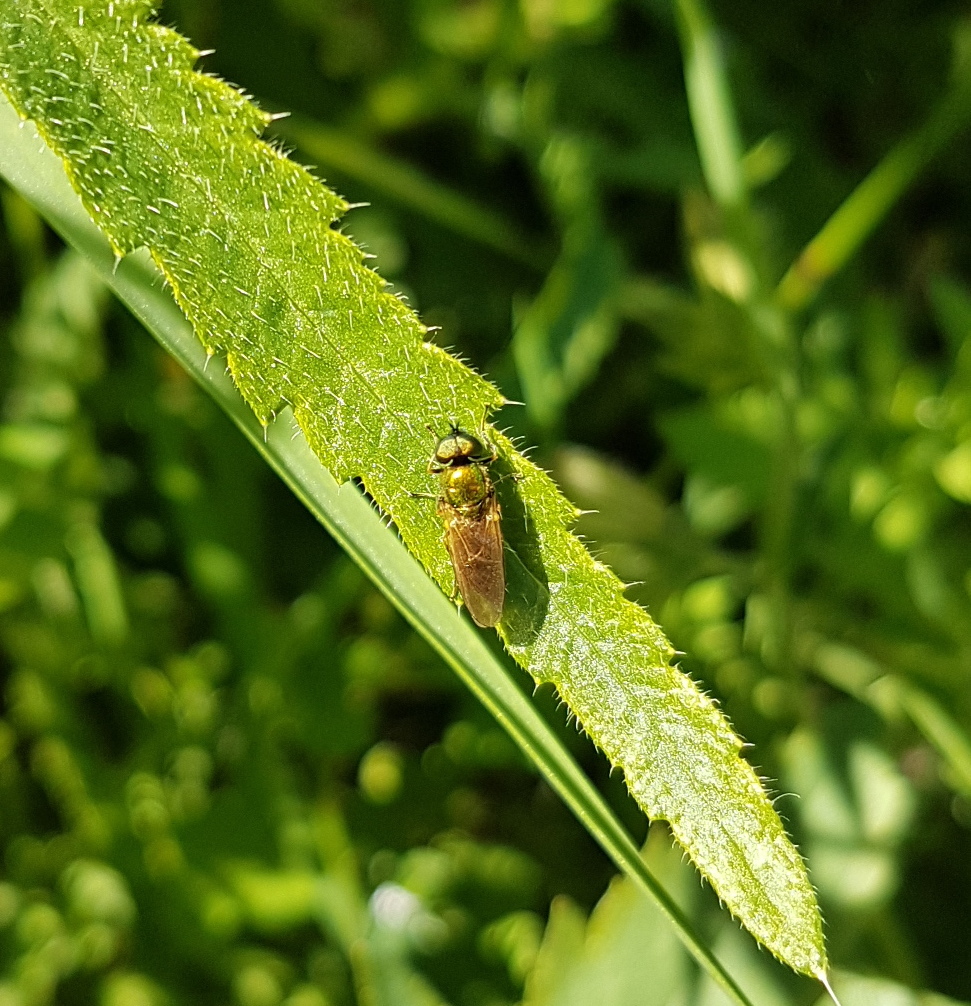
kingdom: Animalia
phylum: Arthropoda
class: Insecta
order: Diptera
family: Stratiomyidae
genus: Chloromyia
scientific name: Chloromyia formosa
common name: Soldier fly
